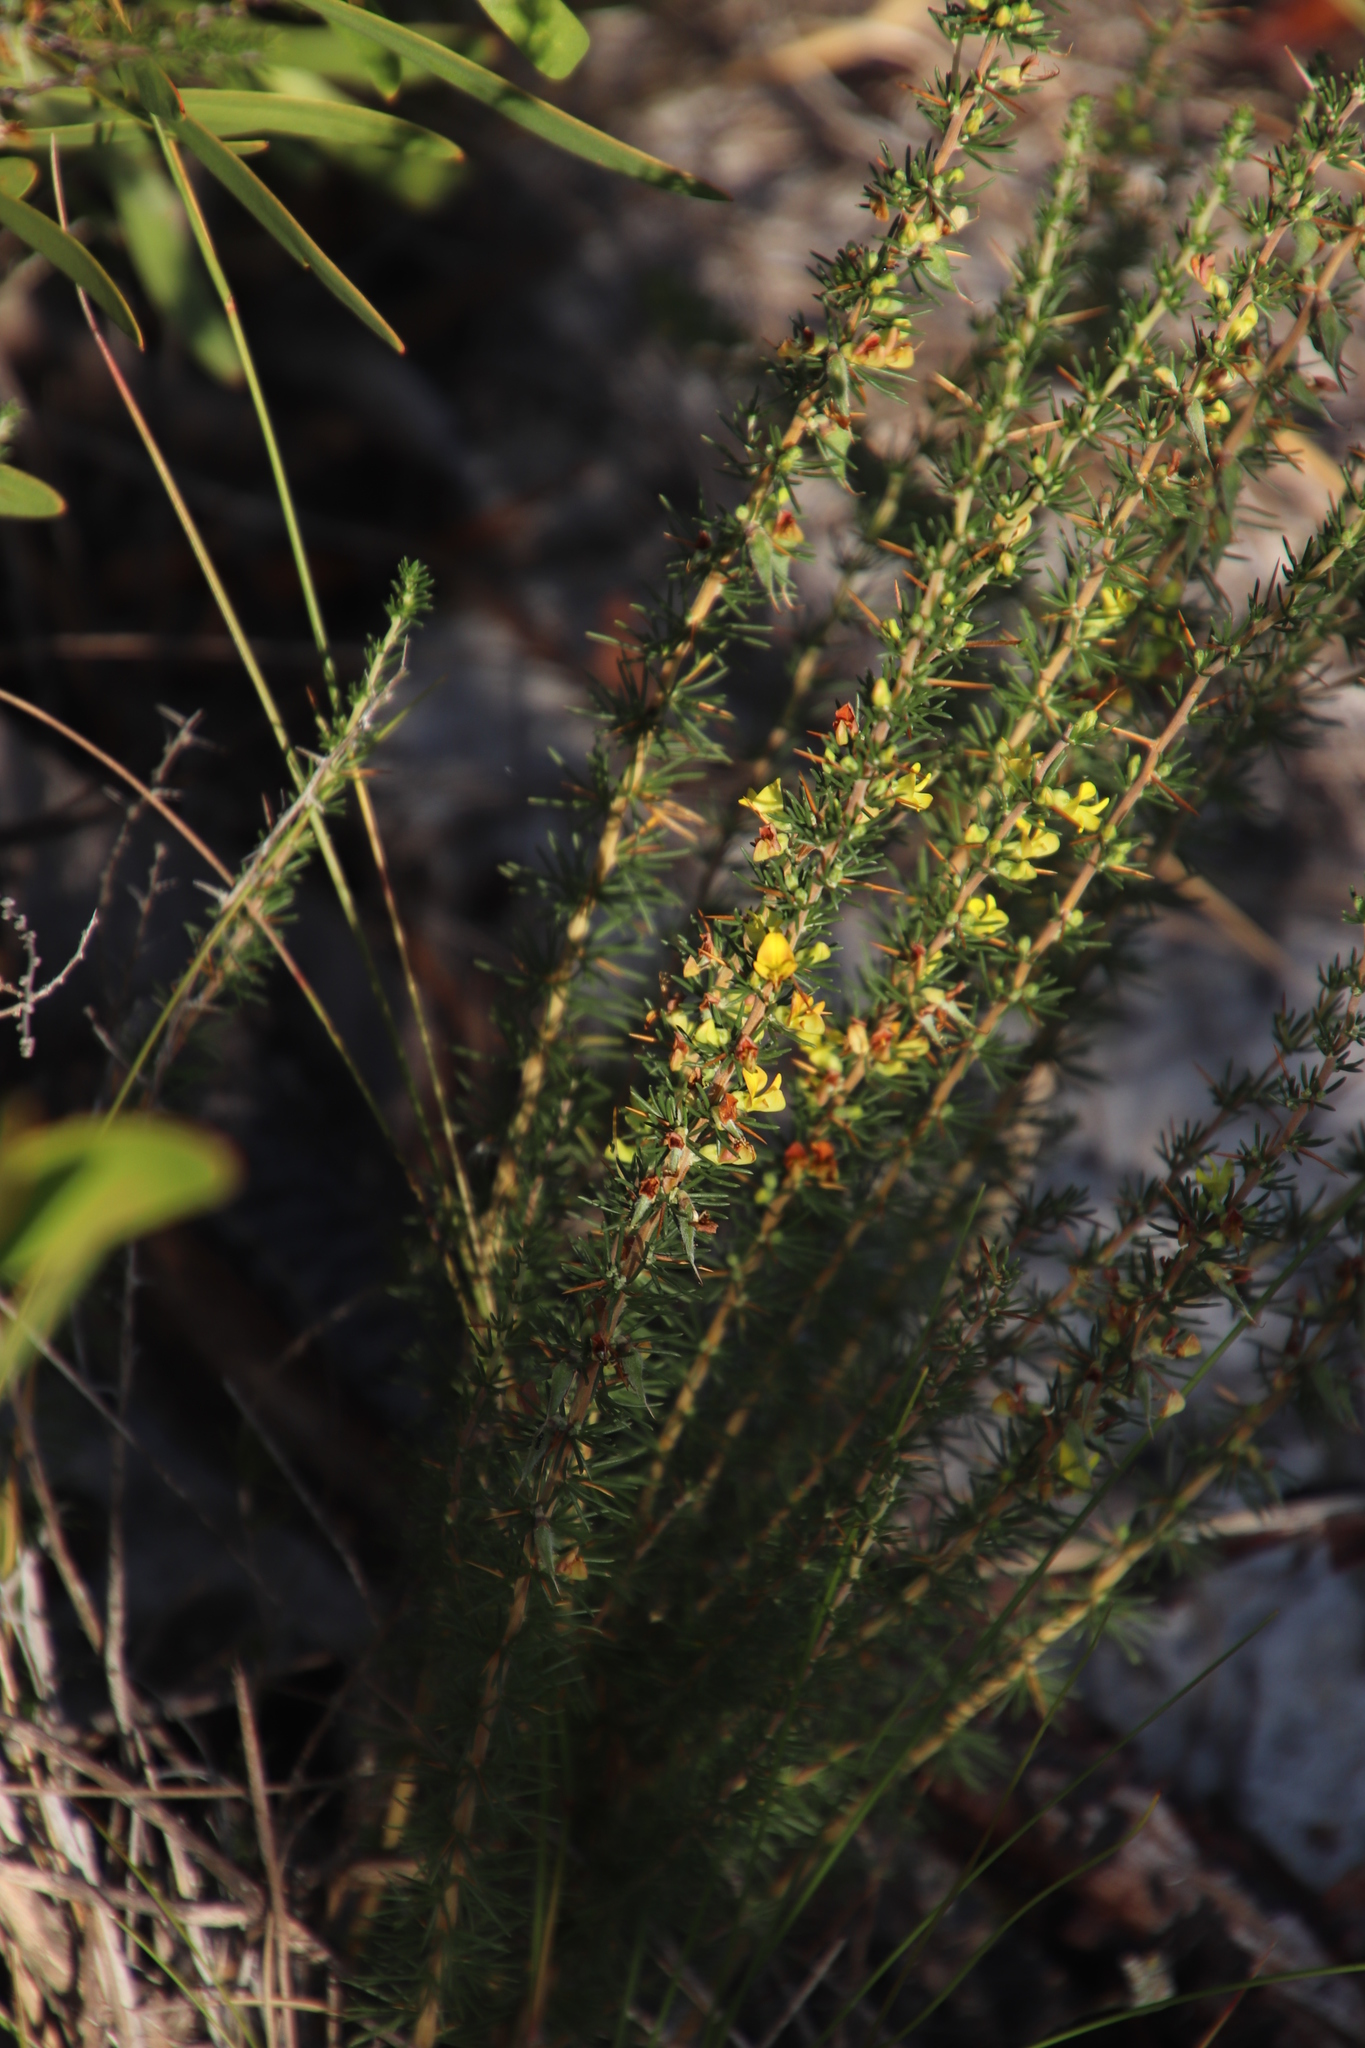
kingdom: Plantae
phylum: Tracheophyta
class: Magnoliopsida
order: Fabales
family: Fabaceae
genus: Aspalathus
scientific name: Aspalathus spinosa
